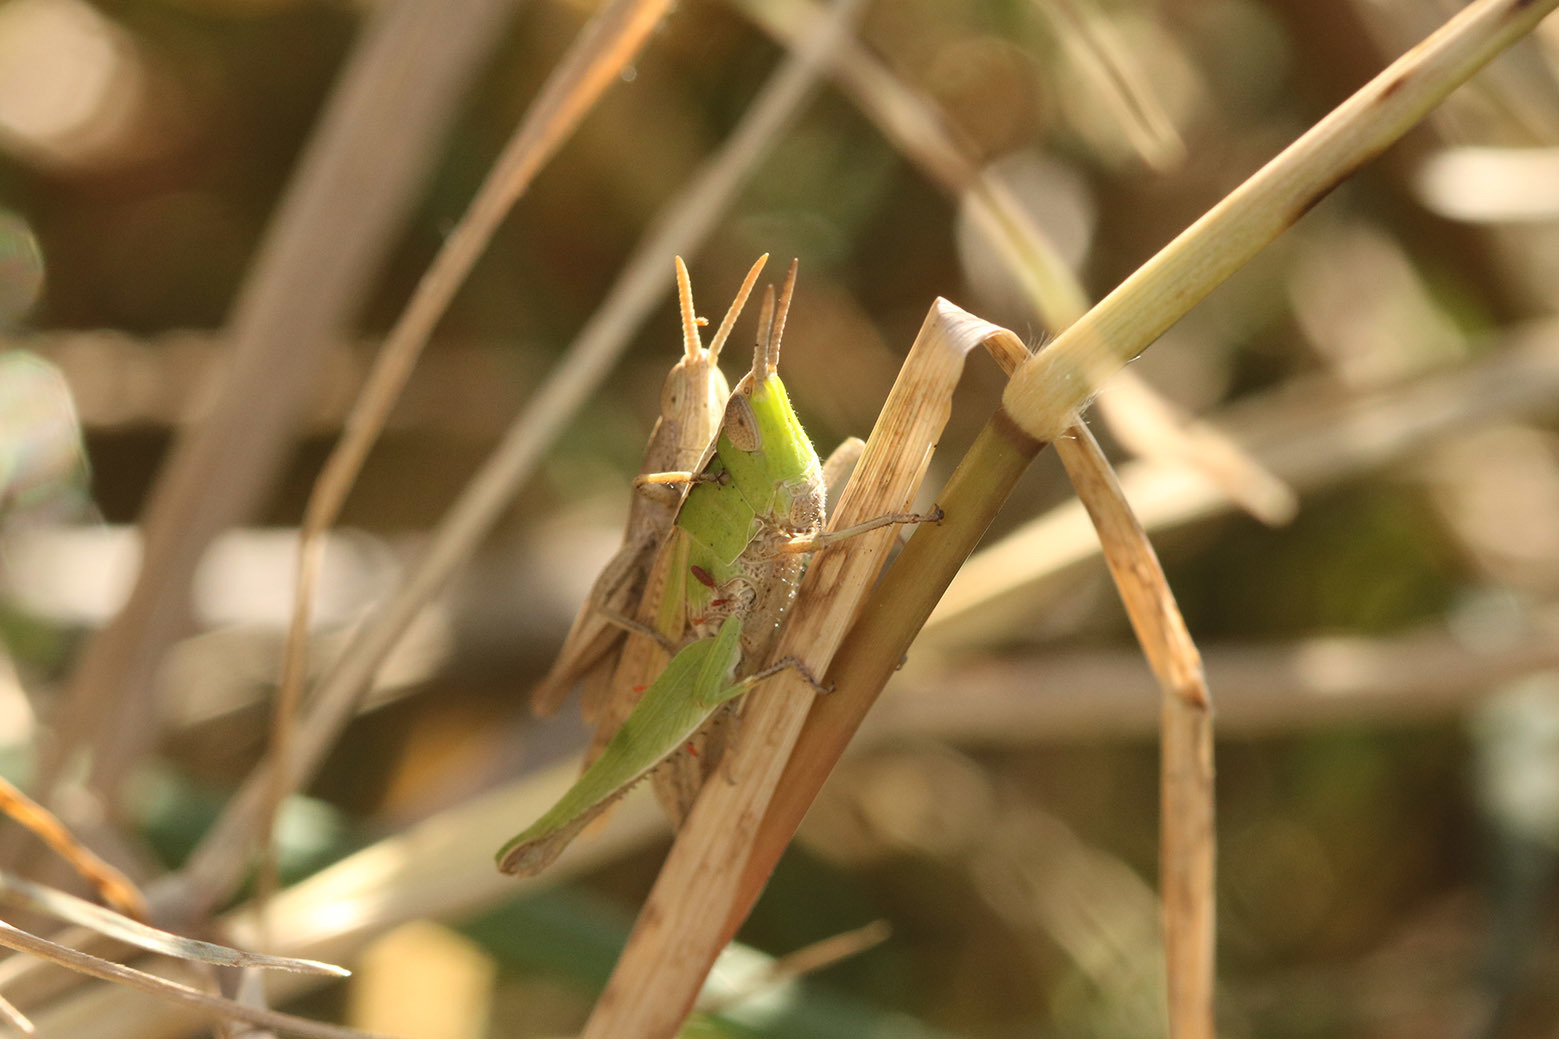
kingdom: Animalia
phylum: Arthropoda
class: Insecta
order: Orthoptera
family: Acrididae
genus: Laplatacris
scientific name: Laplatacris dispar
